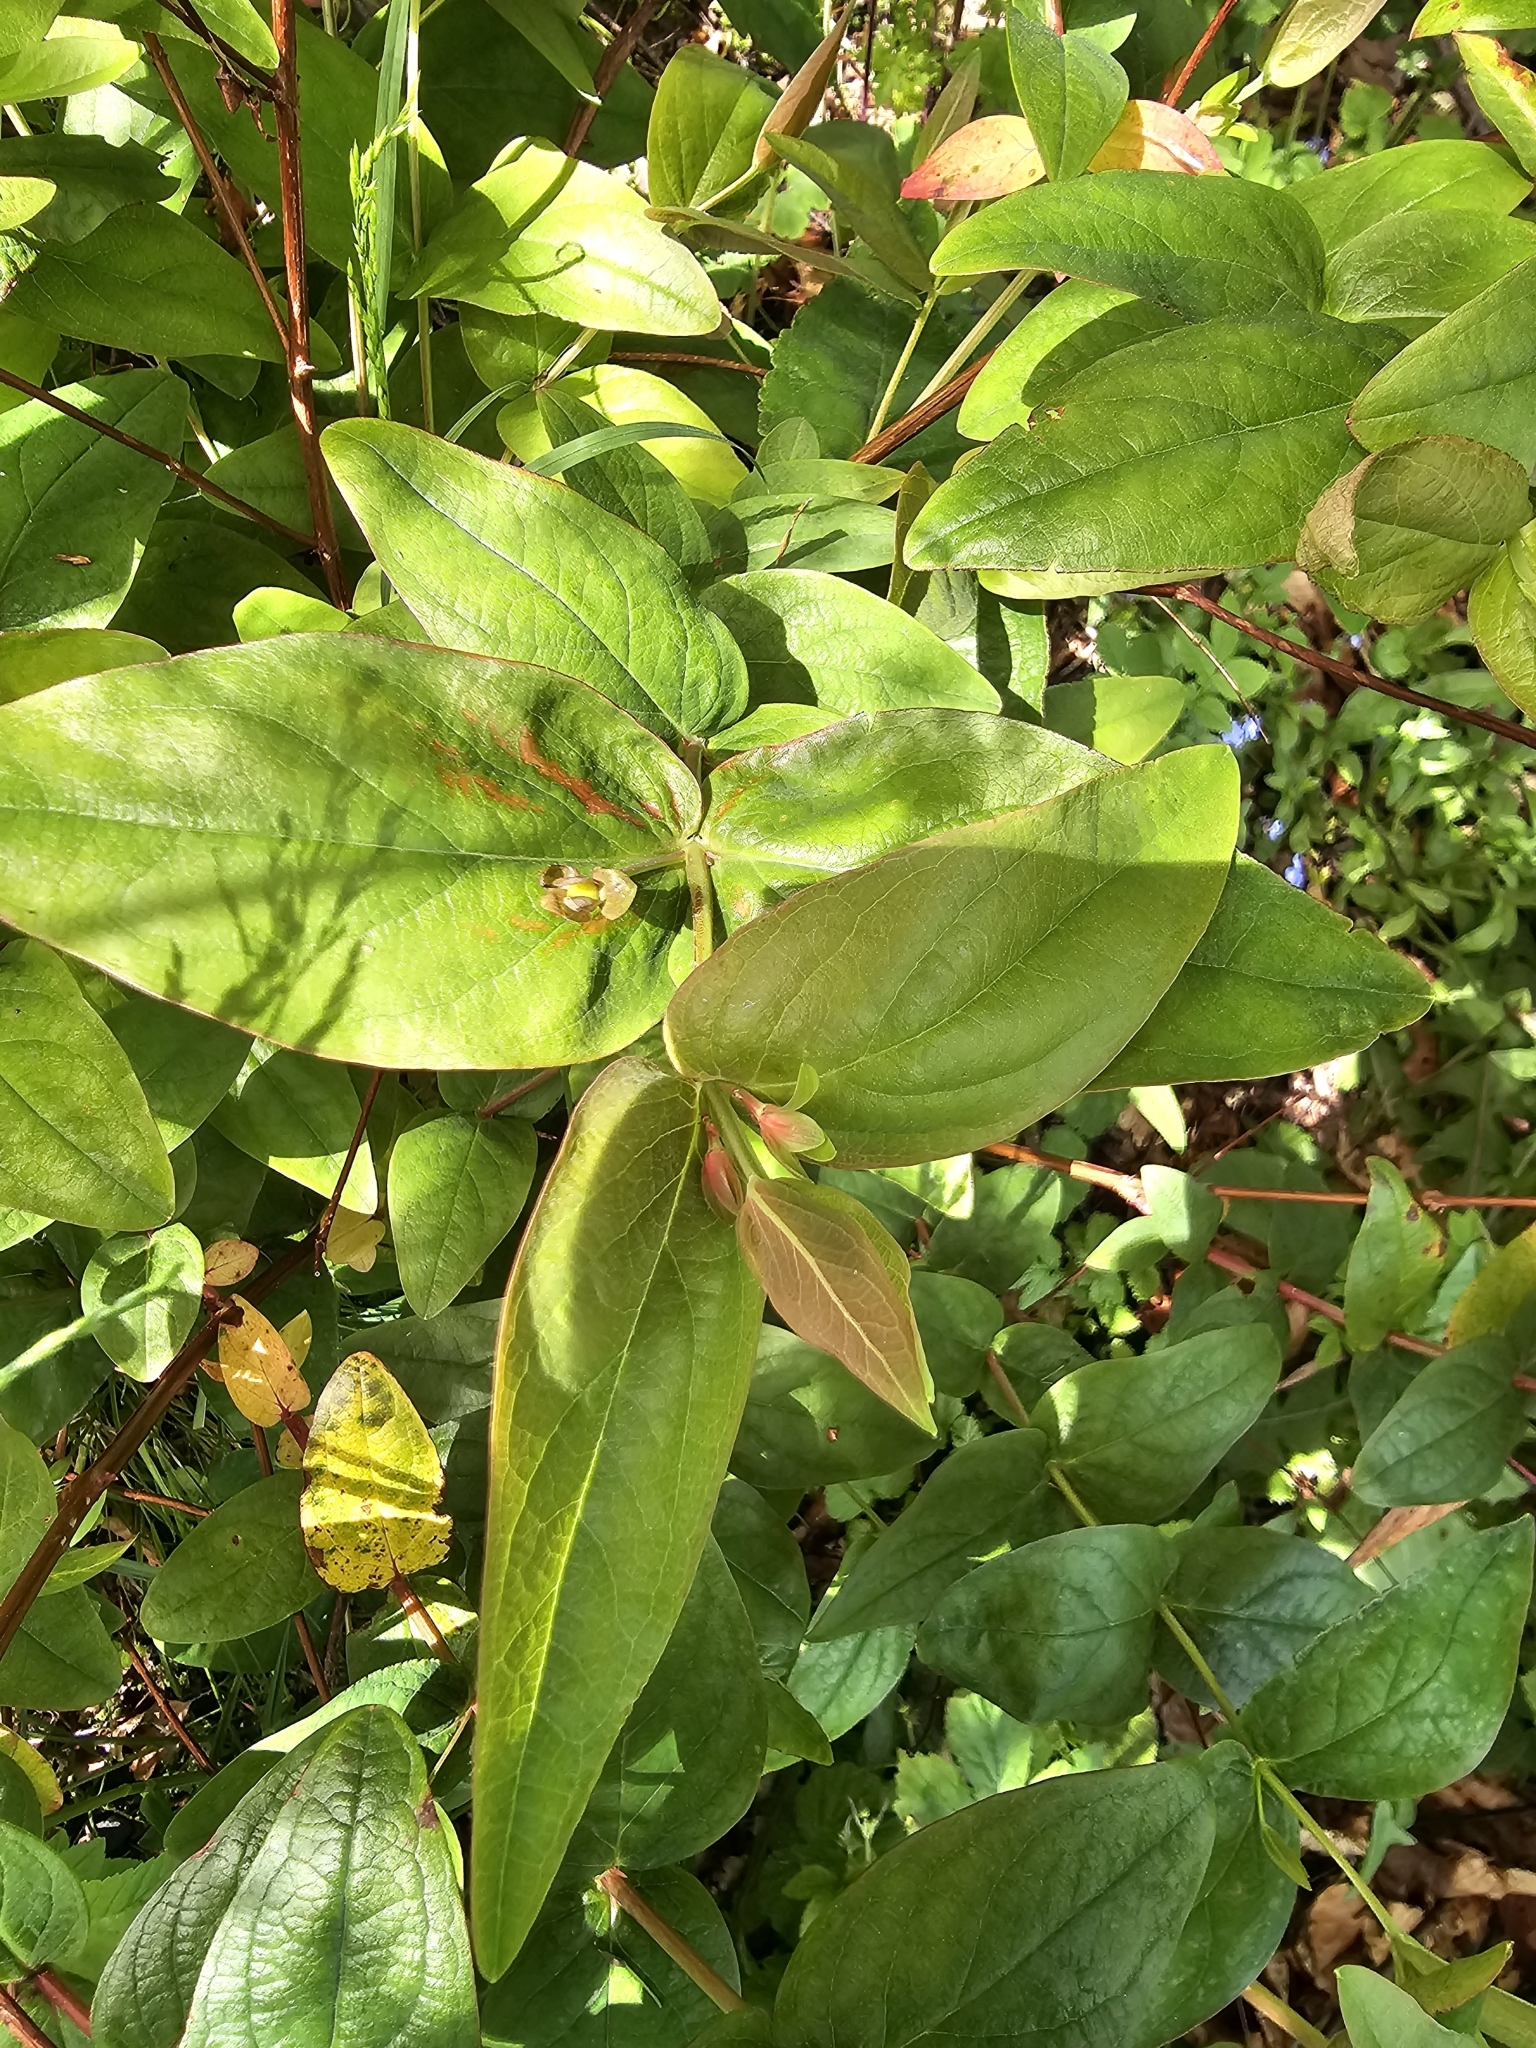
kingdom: Plantae
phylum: Tracheophyta
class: Magnoliopsida
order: Malpighiales
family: Hypericaceae
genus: Hypericum
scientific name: Hypericum androsaemum
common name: Sweet-amber
